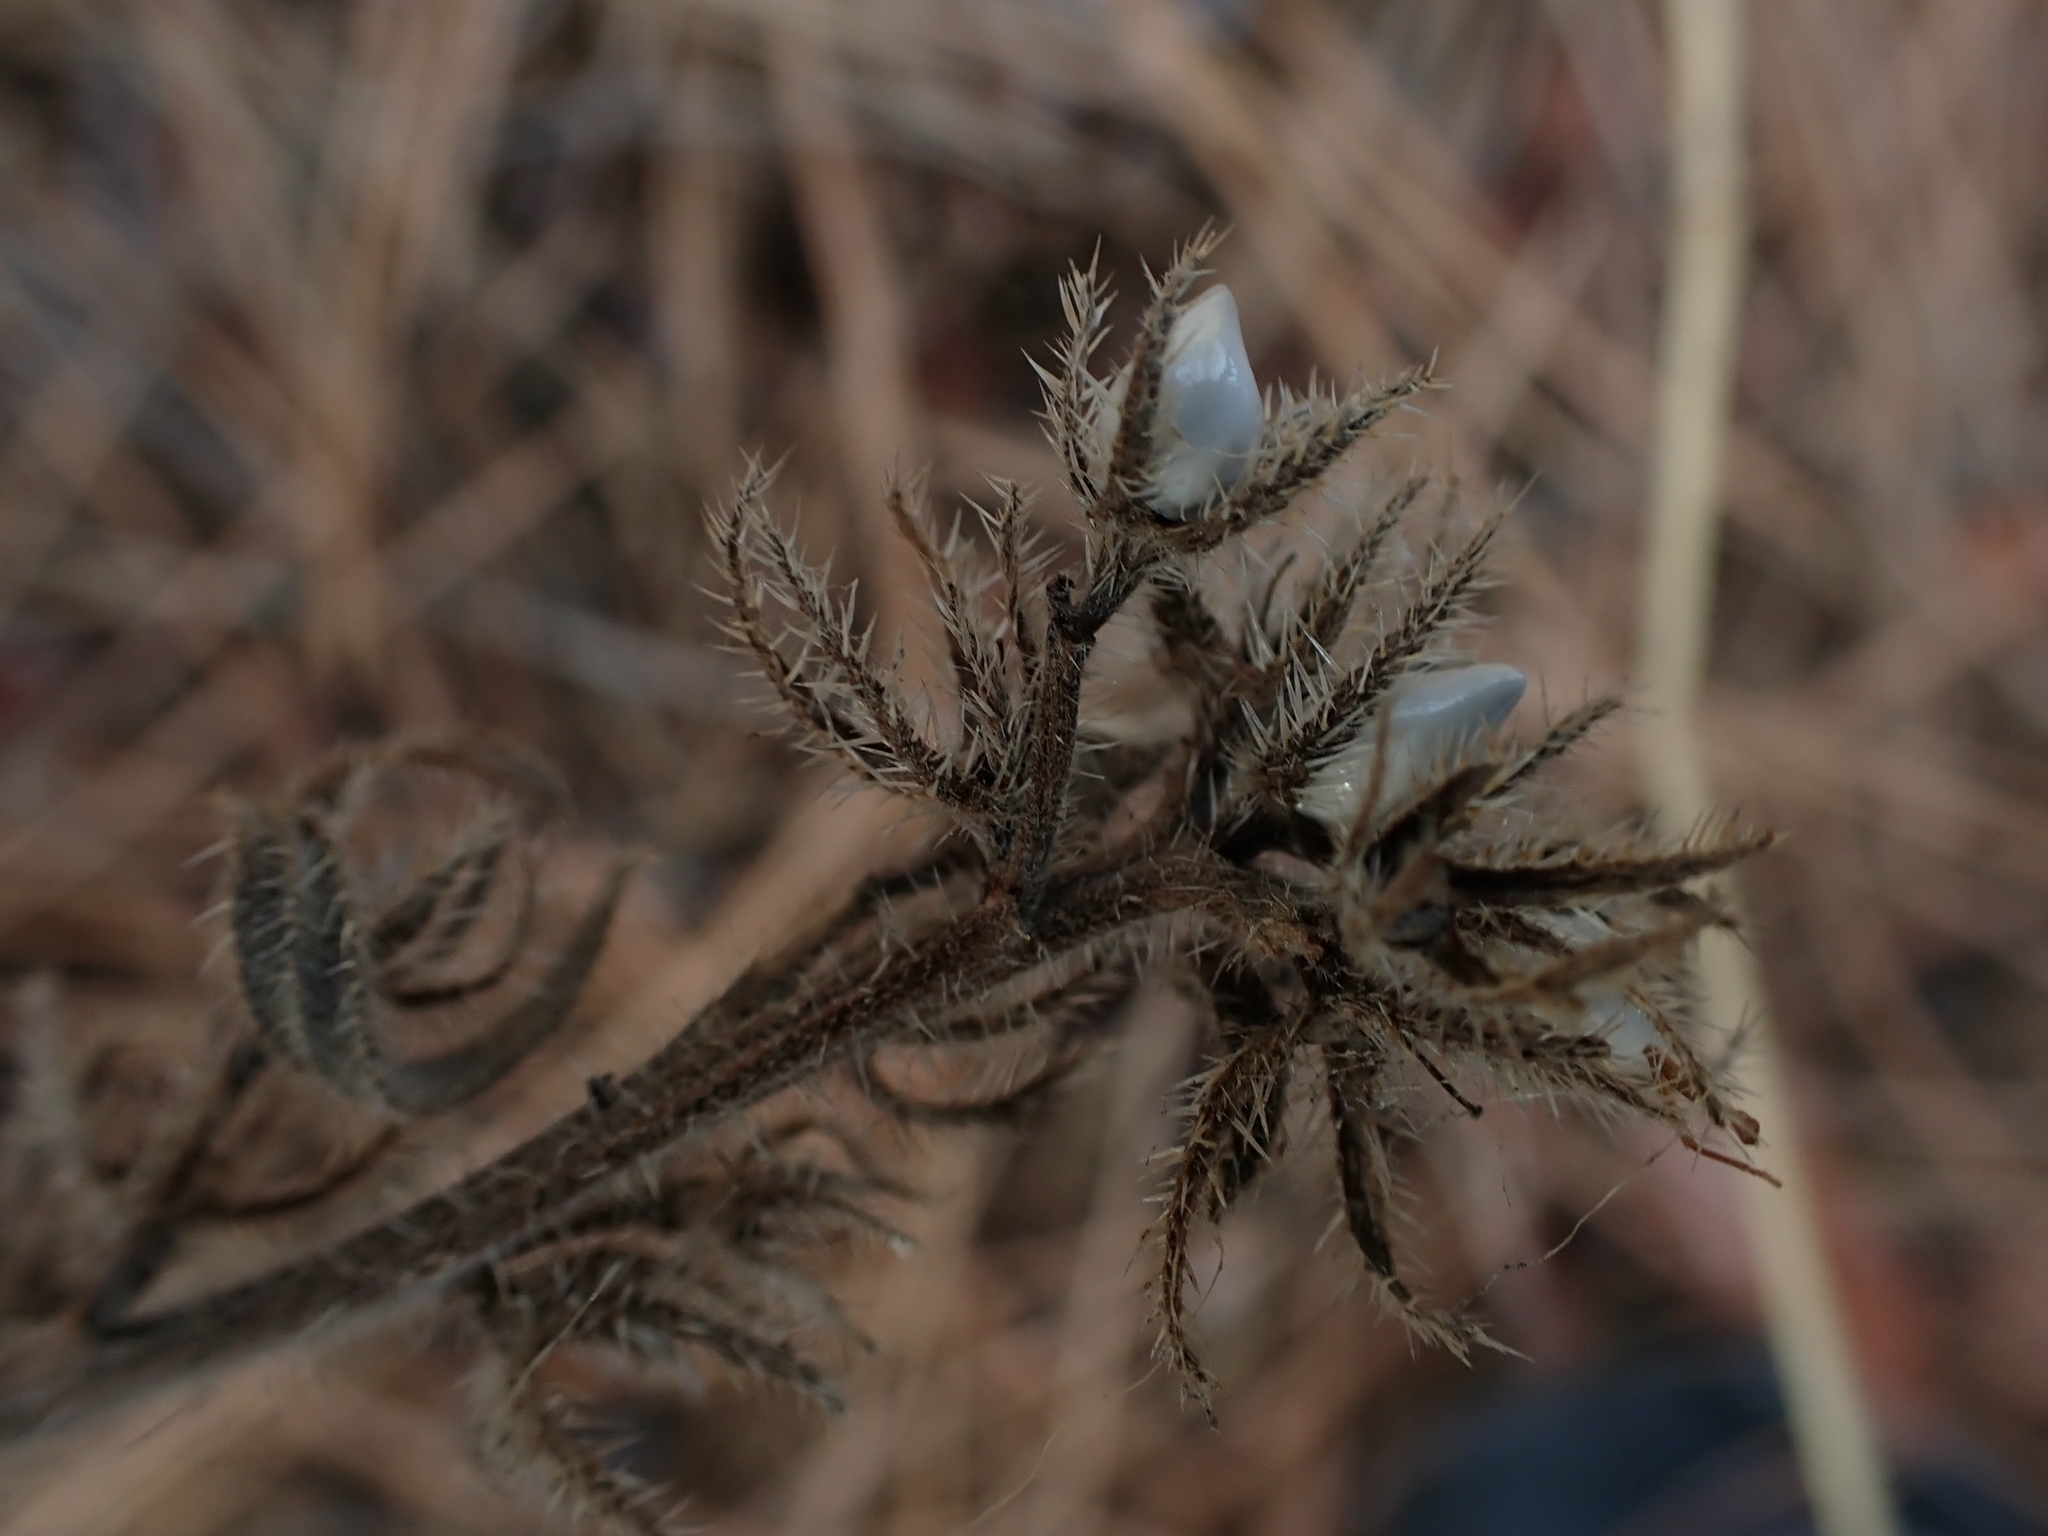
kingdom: Plantae
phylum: Tracheophyta
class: Magnoliopsida
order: Boraginales
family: Boraginaceae
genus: Lithospermum
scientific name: Lithospermum ruderale
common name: Western gromwell
